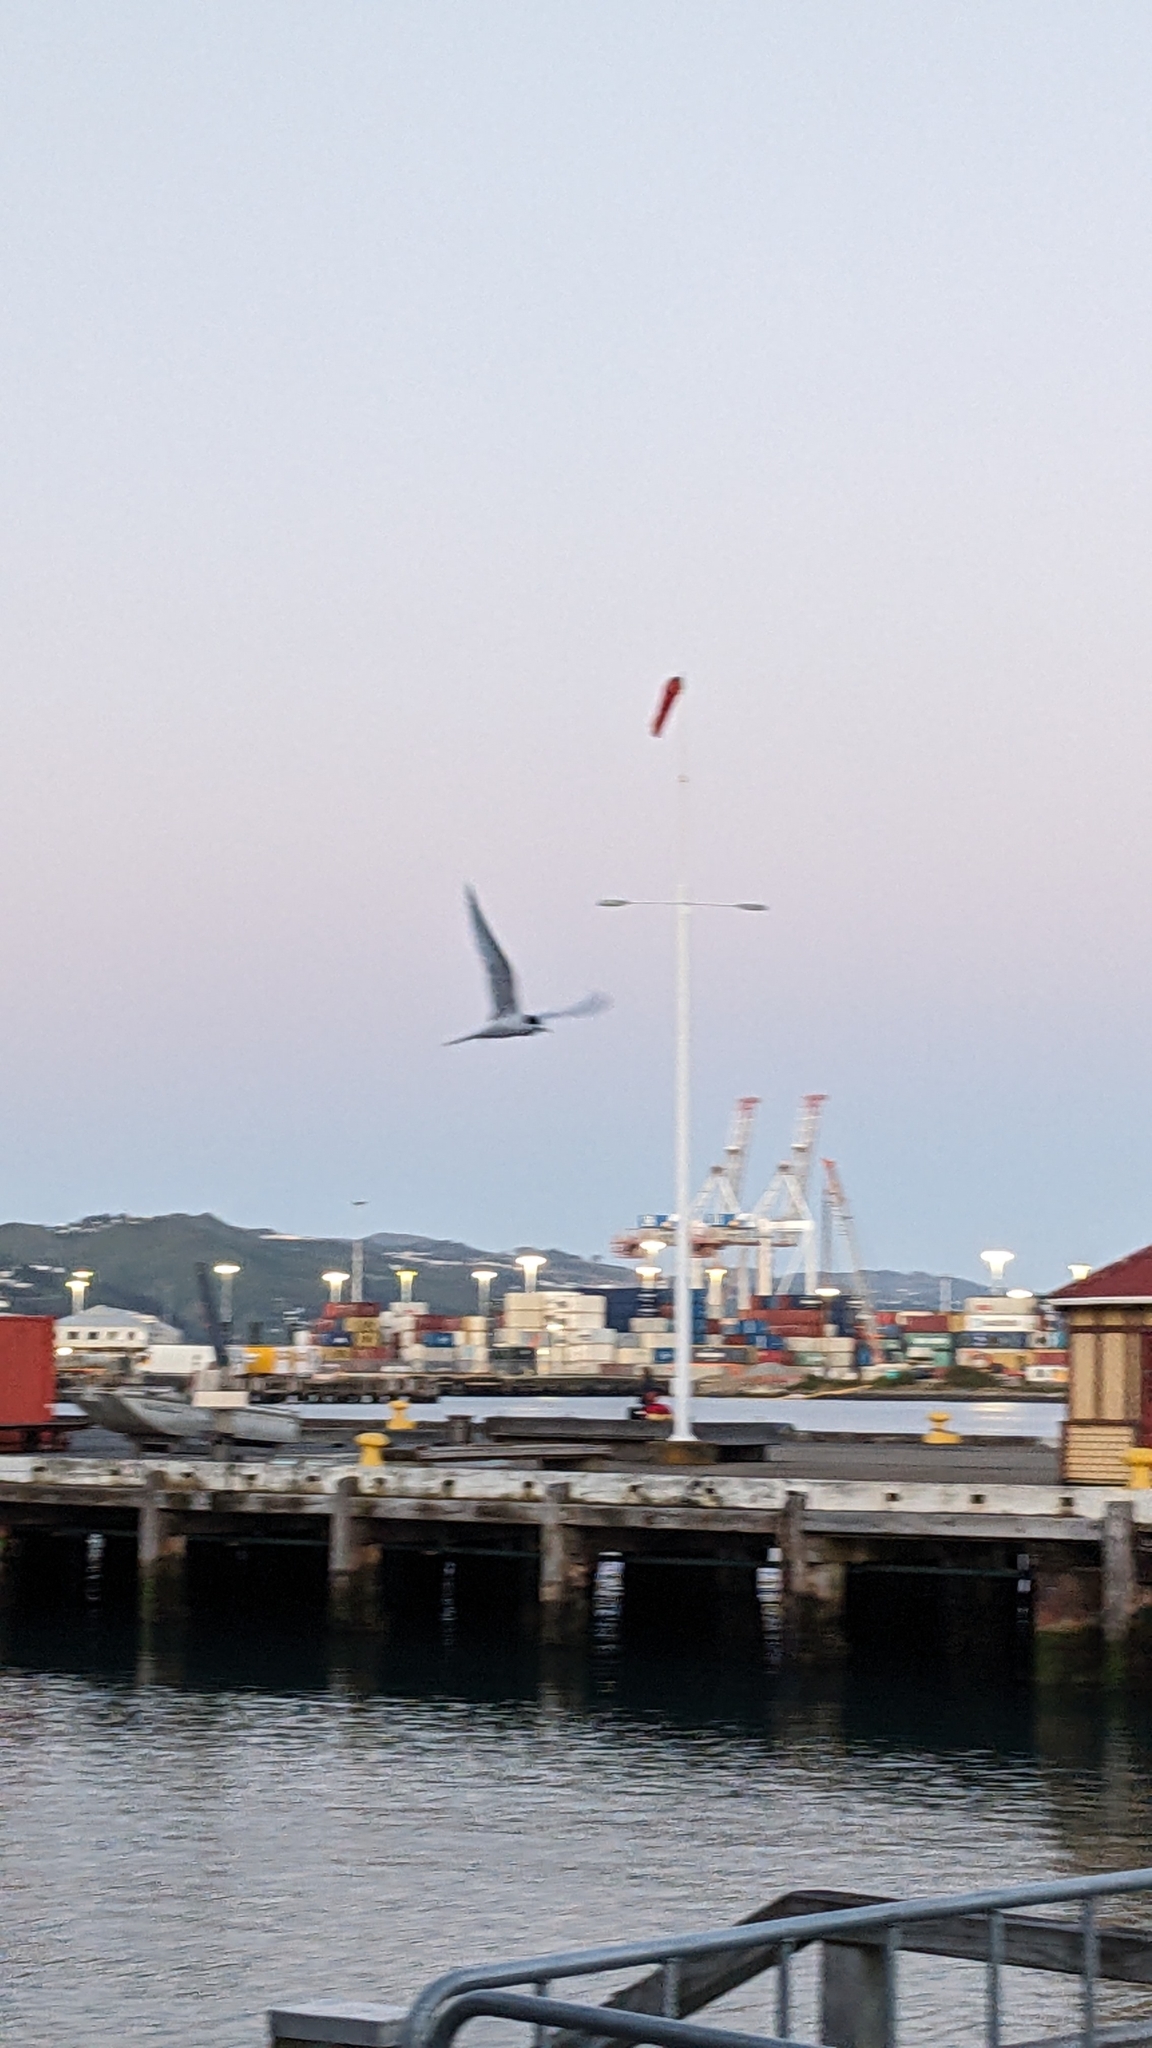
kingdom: Animalia
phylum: Chordata
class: Aves
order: Charadriiformes
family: Laridae
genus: Sterna
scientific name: Sterna striata
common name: White-fronted tern
